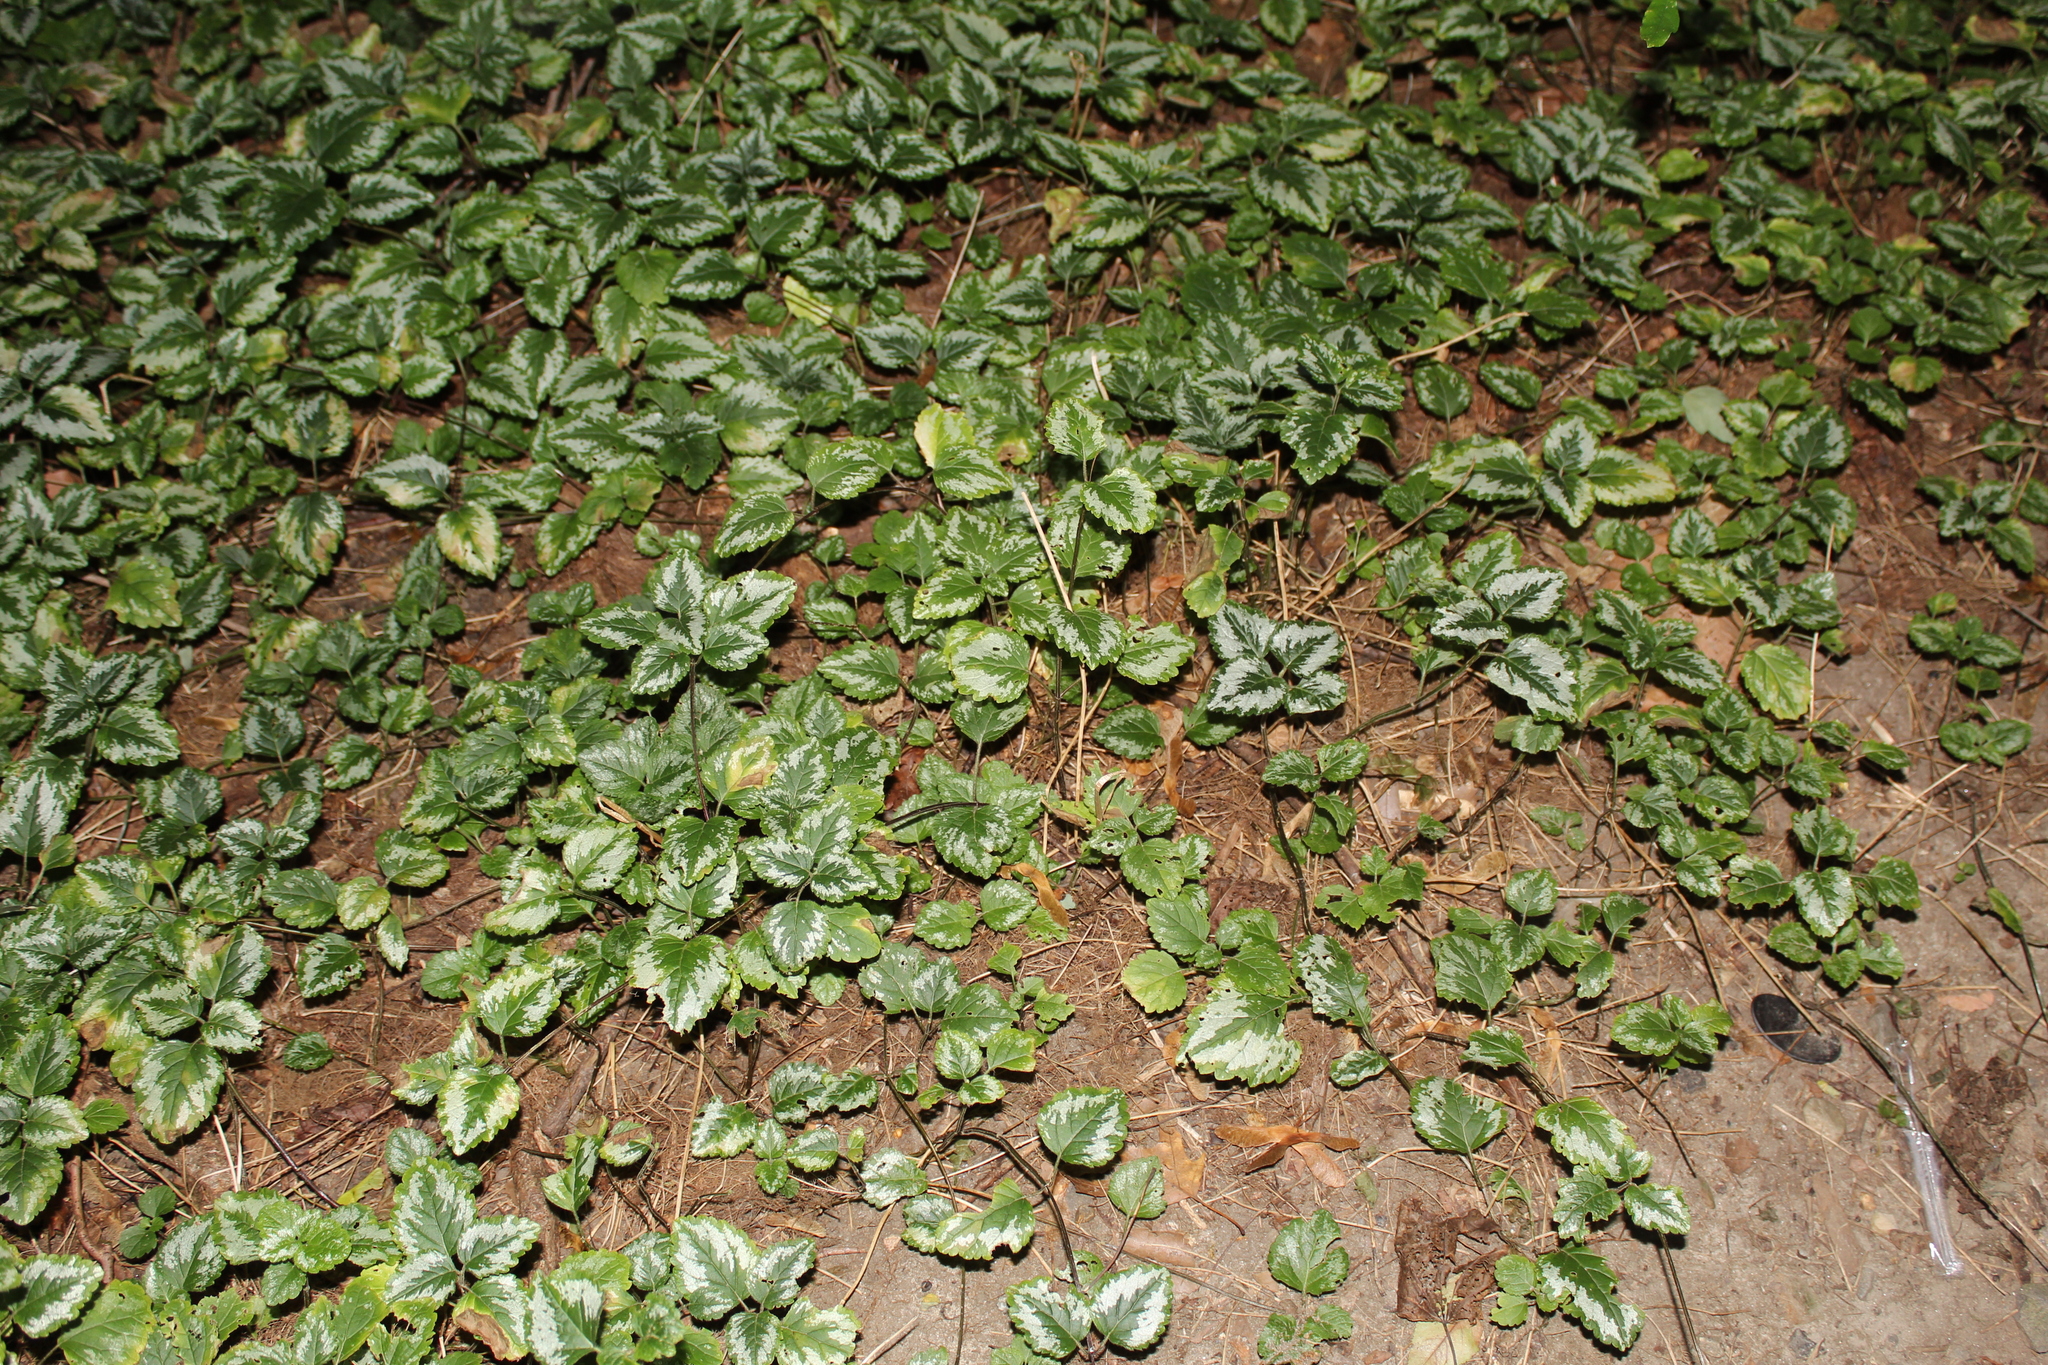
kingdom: Plantae
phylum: Tracheophyta
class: Magnoliopsida
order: Lamiales
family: Lamiaceae
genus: Lamium
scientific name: Lamium galeobdolon
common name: Yellow archangel
